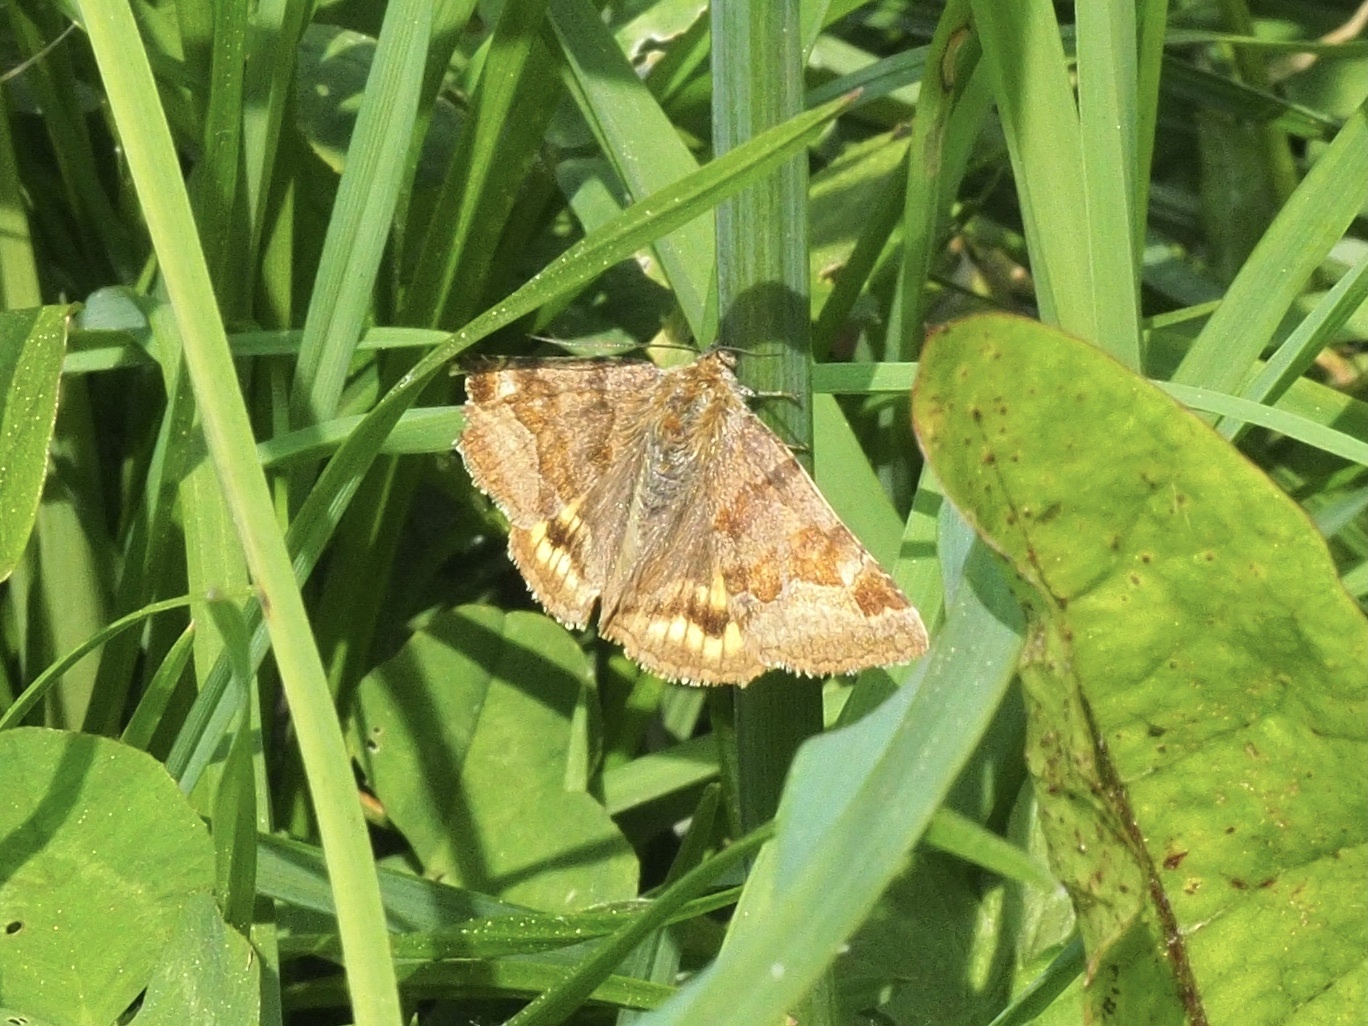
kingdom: Animalia
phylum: Arthropoda
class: Insecta
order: Lepidoptera
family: Erebidae
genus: Euclidia
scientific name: Euclidia glyphica
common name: Burnet companion
